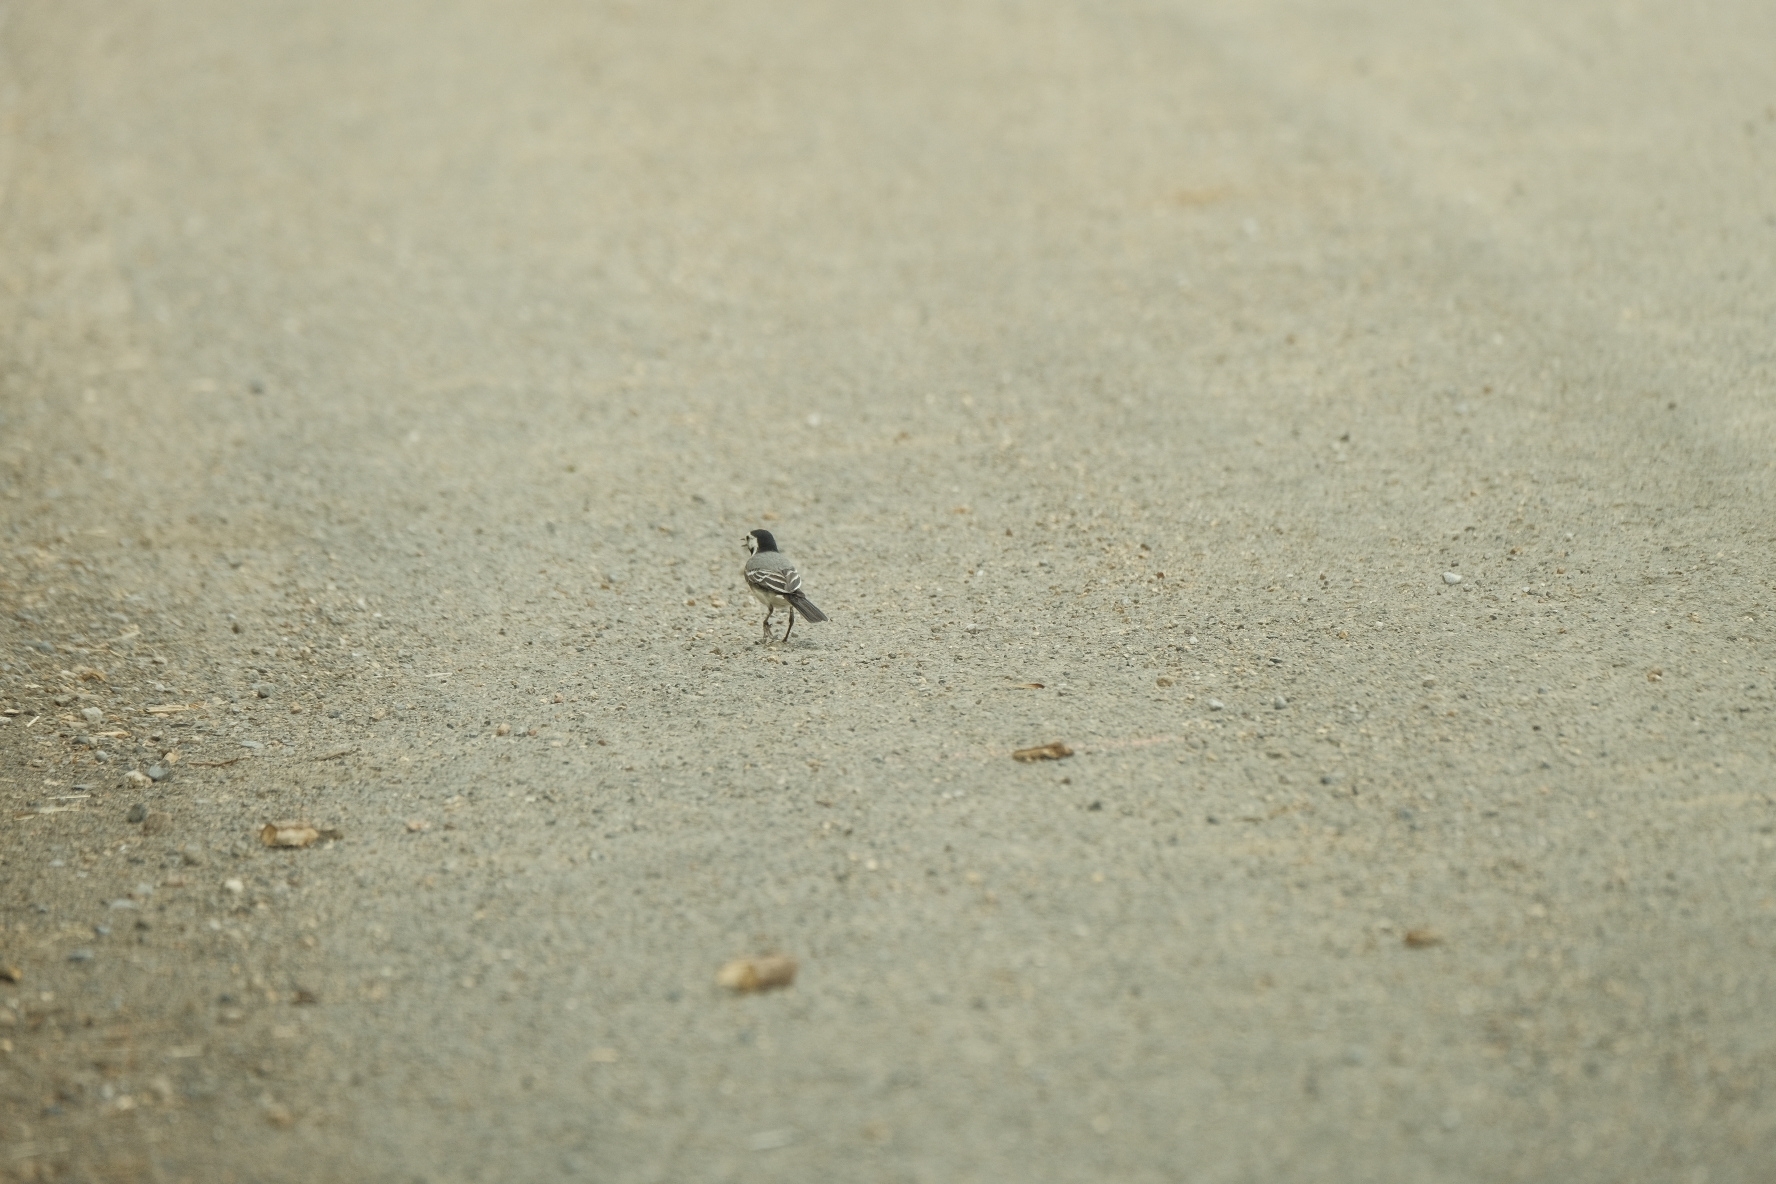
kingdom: Animalia
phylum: Chordata
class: Aves
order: Passeriformes
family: Motacillidae
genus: Motacilla
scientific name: Motacilla alba
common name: White wagtail
